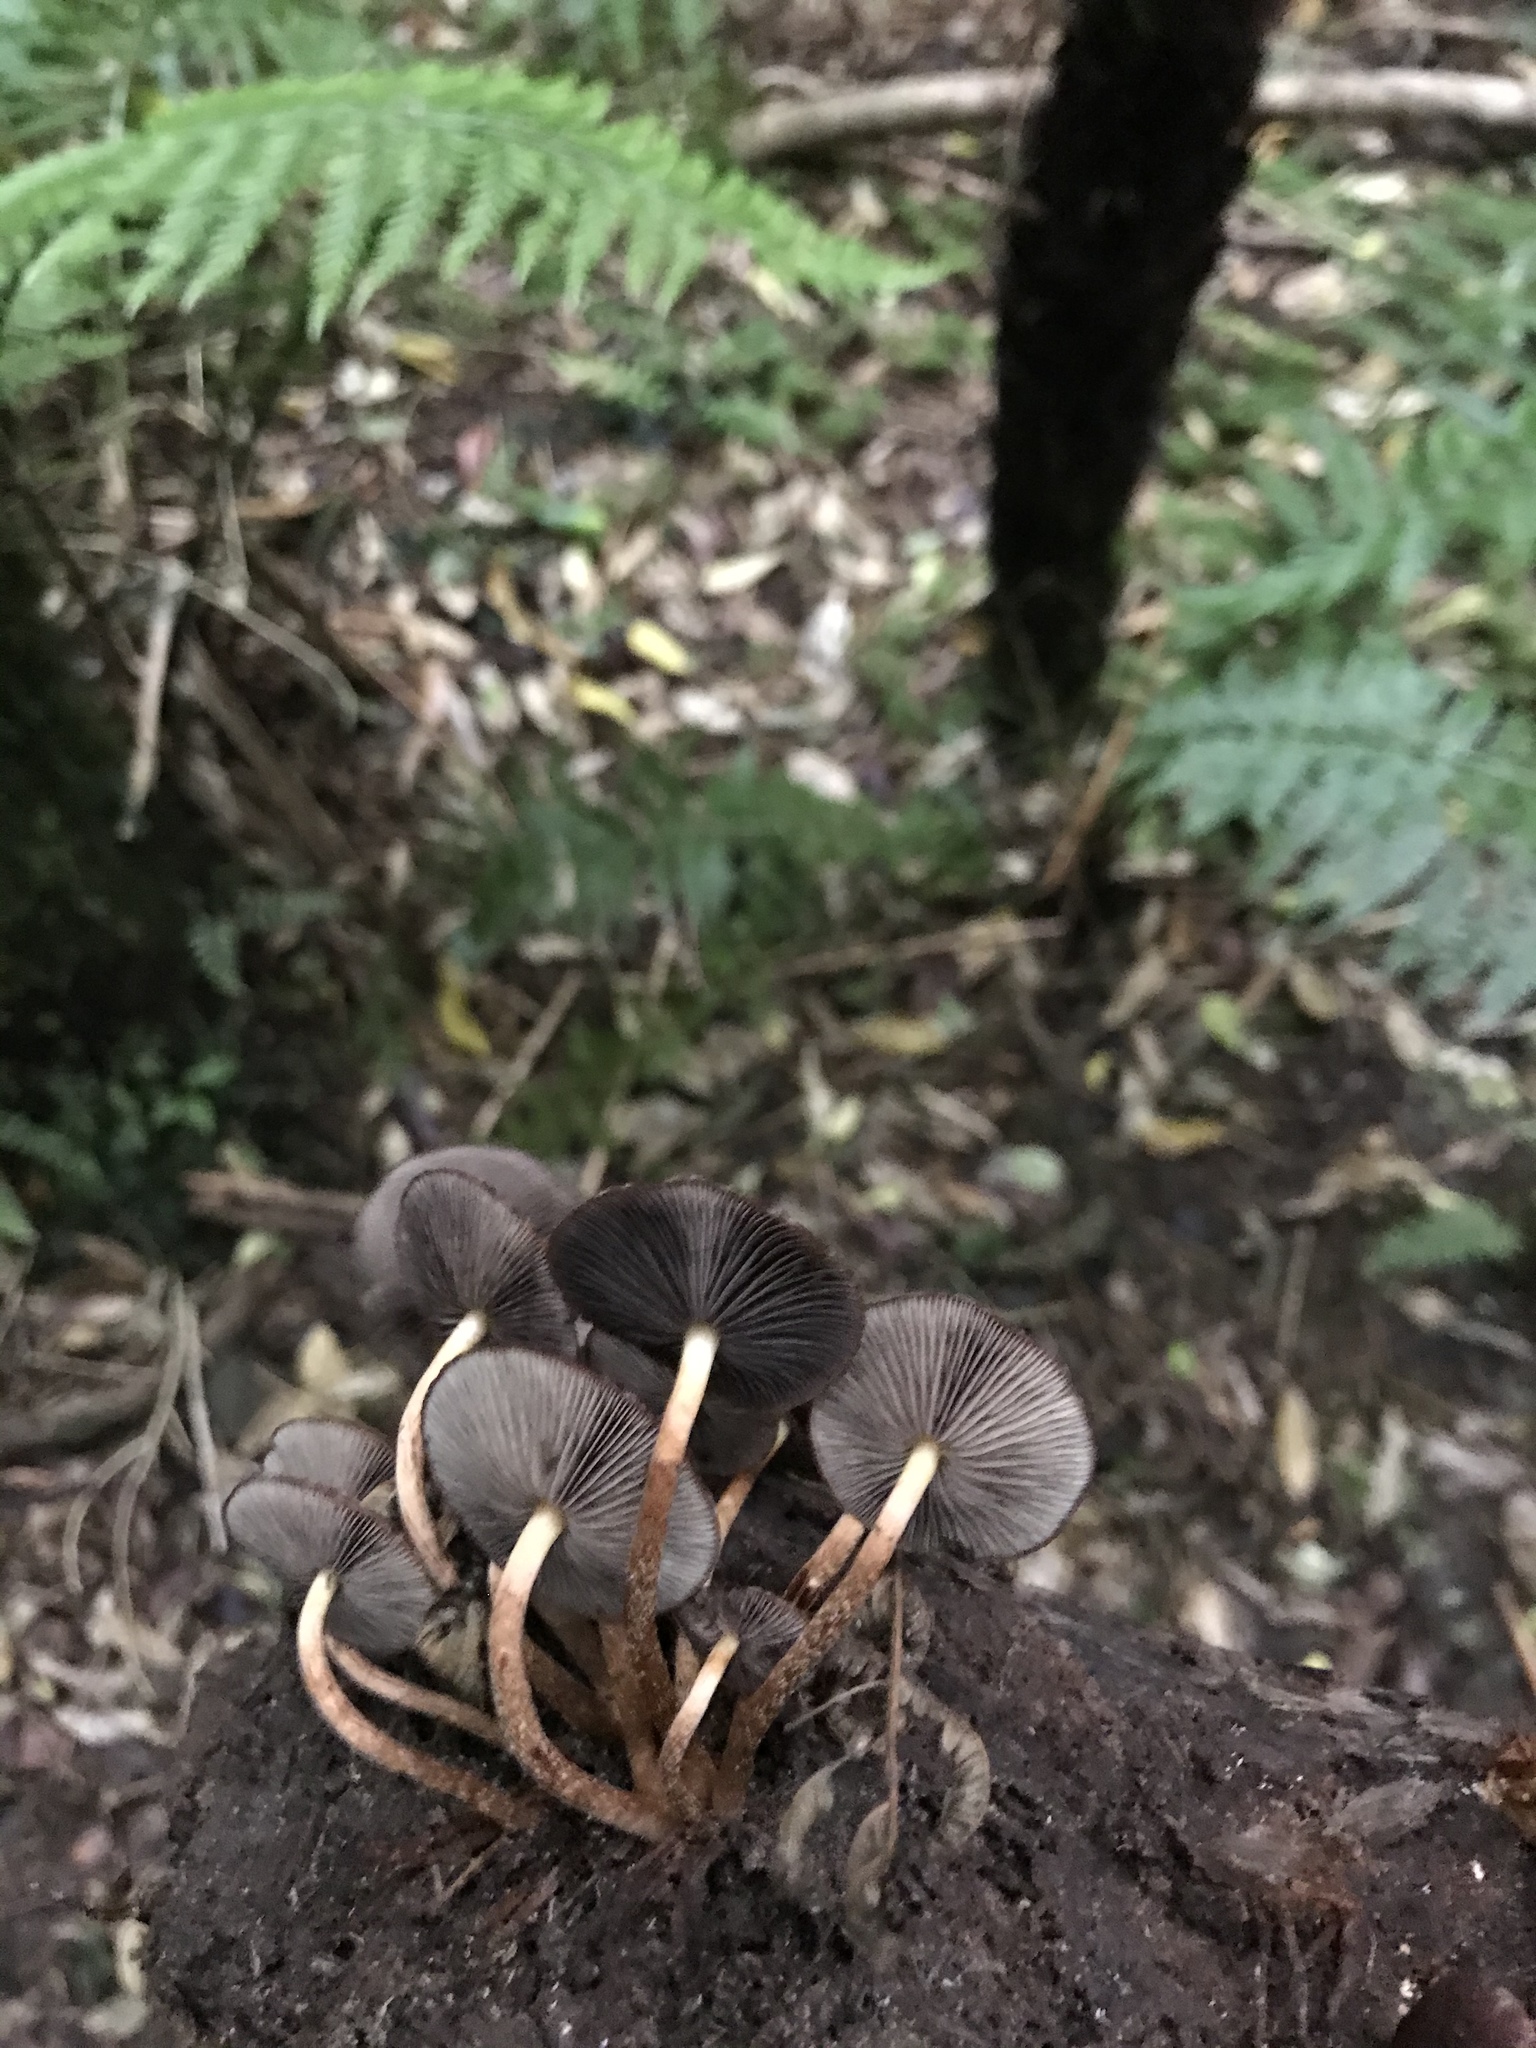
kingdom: Fungi
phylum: Basidiomycota
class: Agaricomycetes
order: Agaricales
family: Strophariaceae
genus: Hypholoma
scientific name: Hypholoma brunneum
